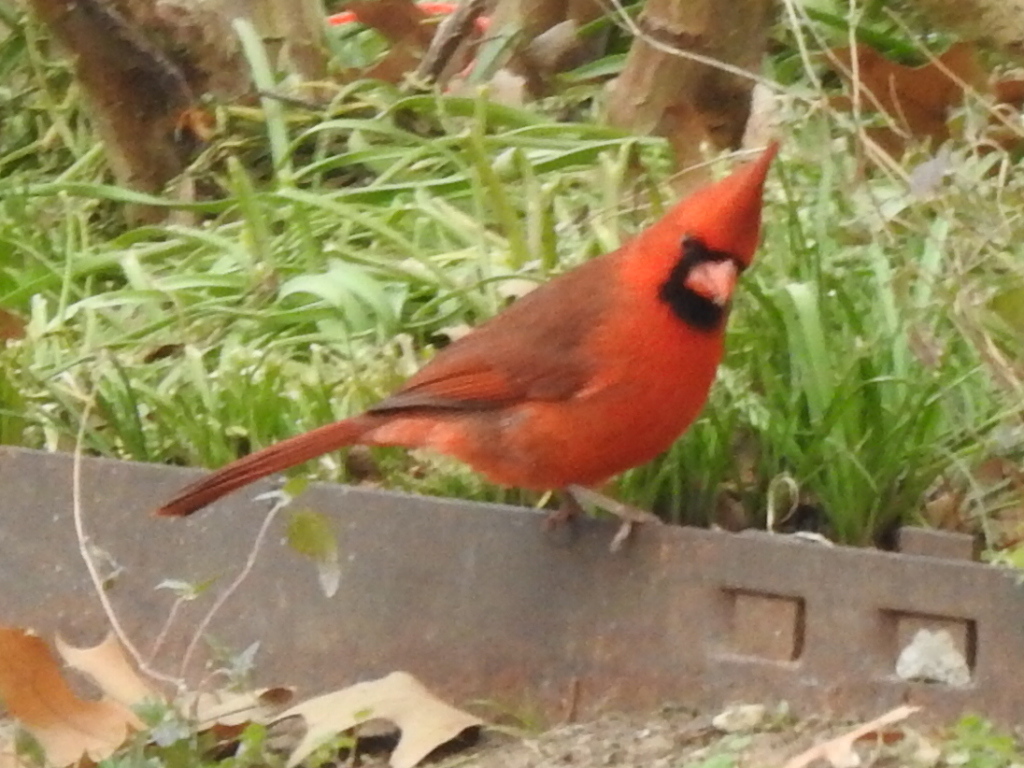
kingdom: Animalia
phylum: Chordata
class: Aves
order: Passeriformes
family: Cardinalidae
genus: Cardinalis
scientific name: Cardinalis cardinalis
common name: Northern cardinal
